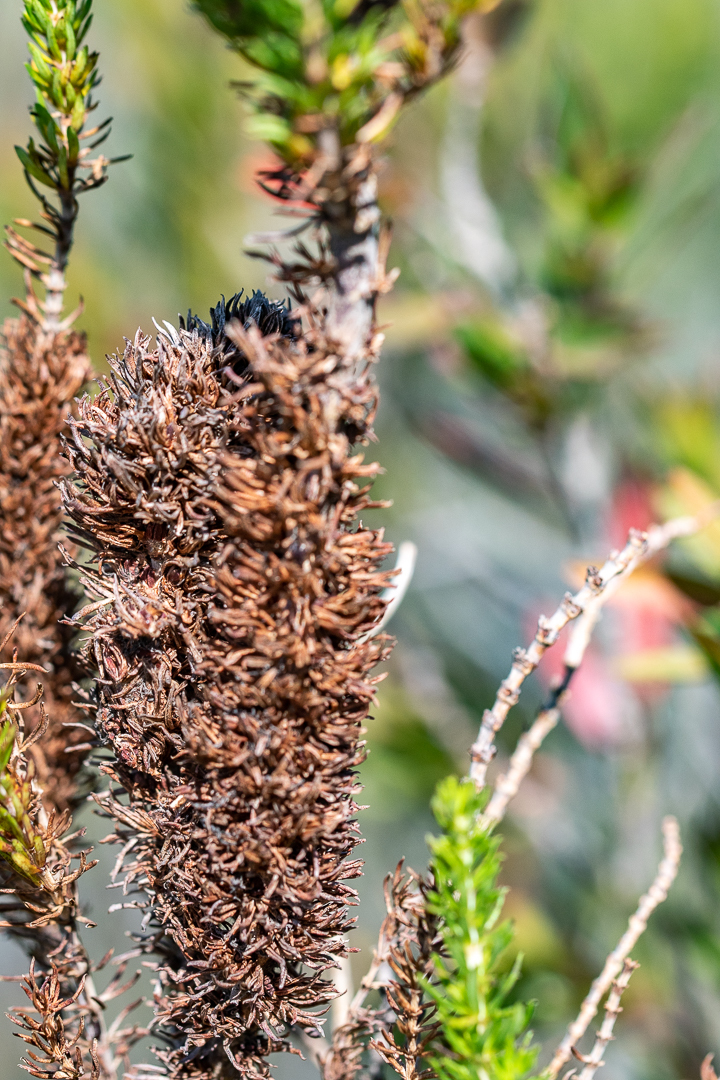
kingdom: Plantae
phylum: Tracheophyta
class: Magnoliopsida
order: Gentianales
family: Rubiaceae
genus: Anthospermum
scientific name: Anthospermum aethiopicum
